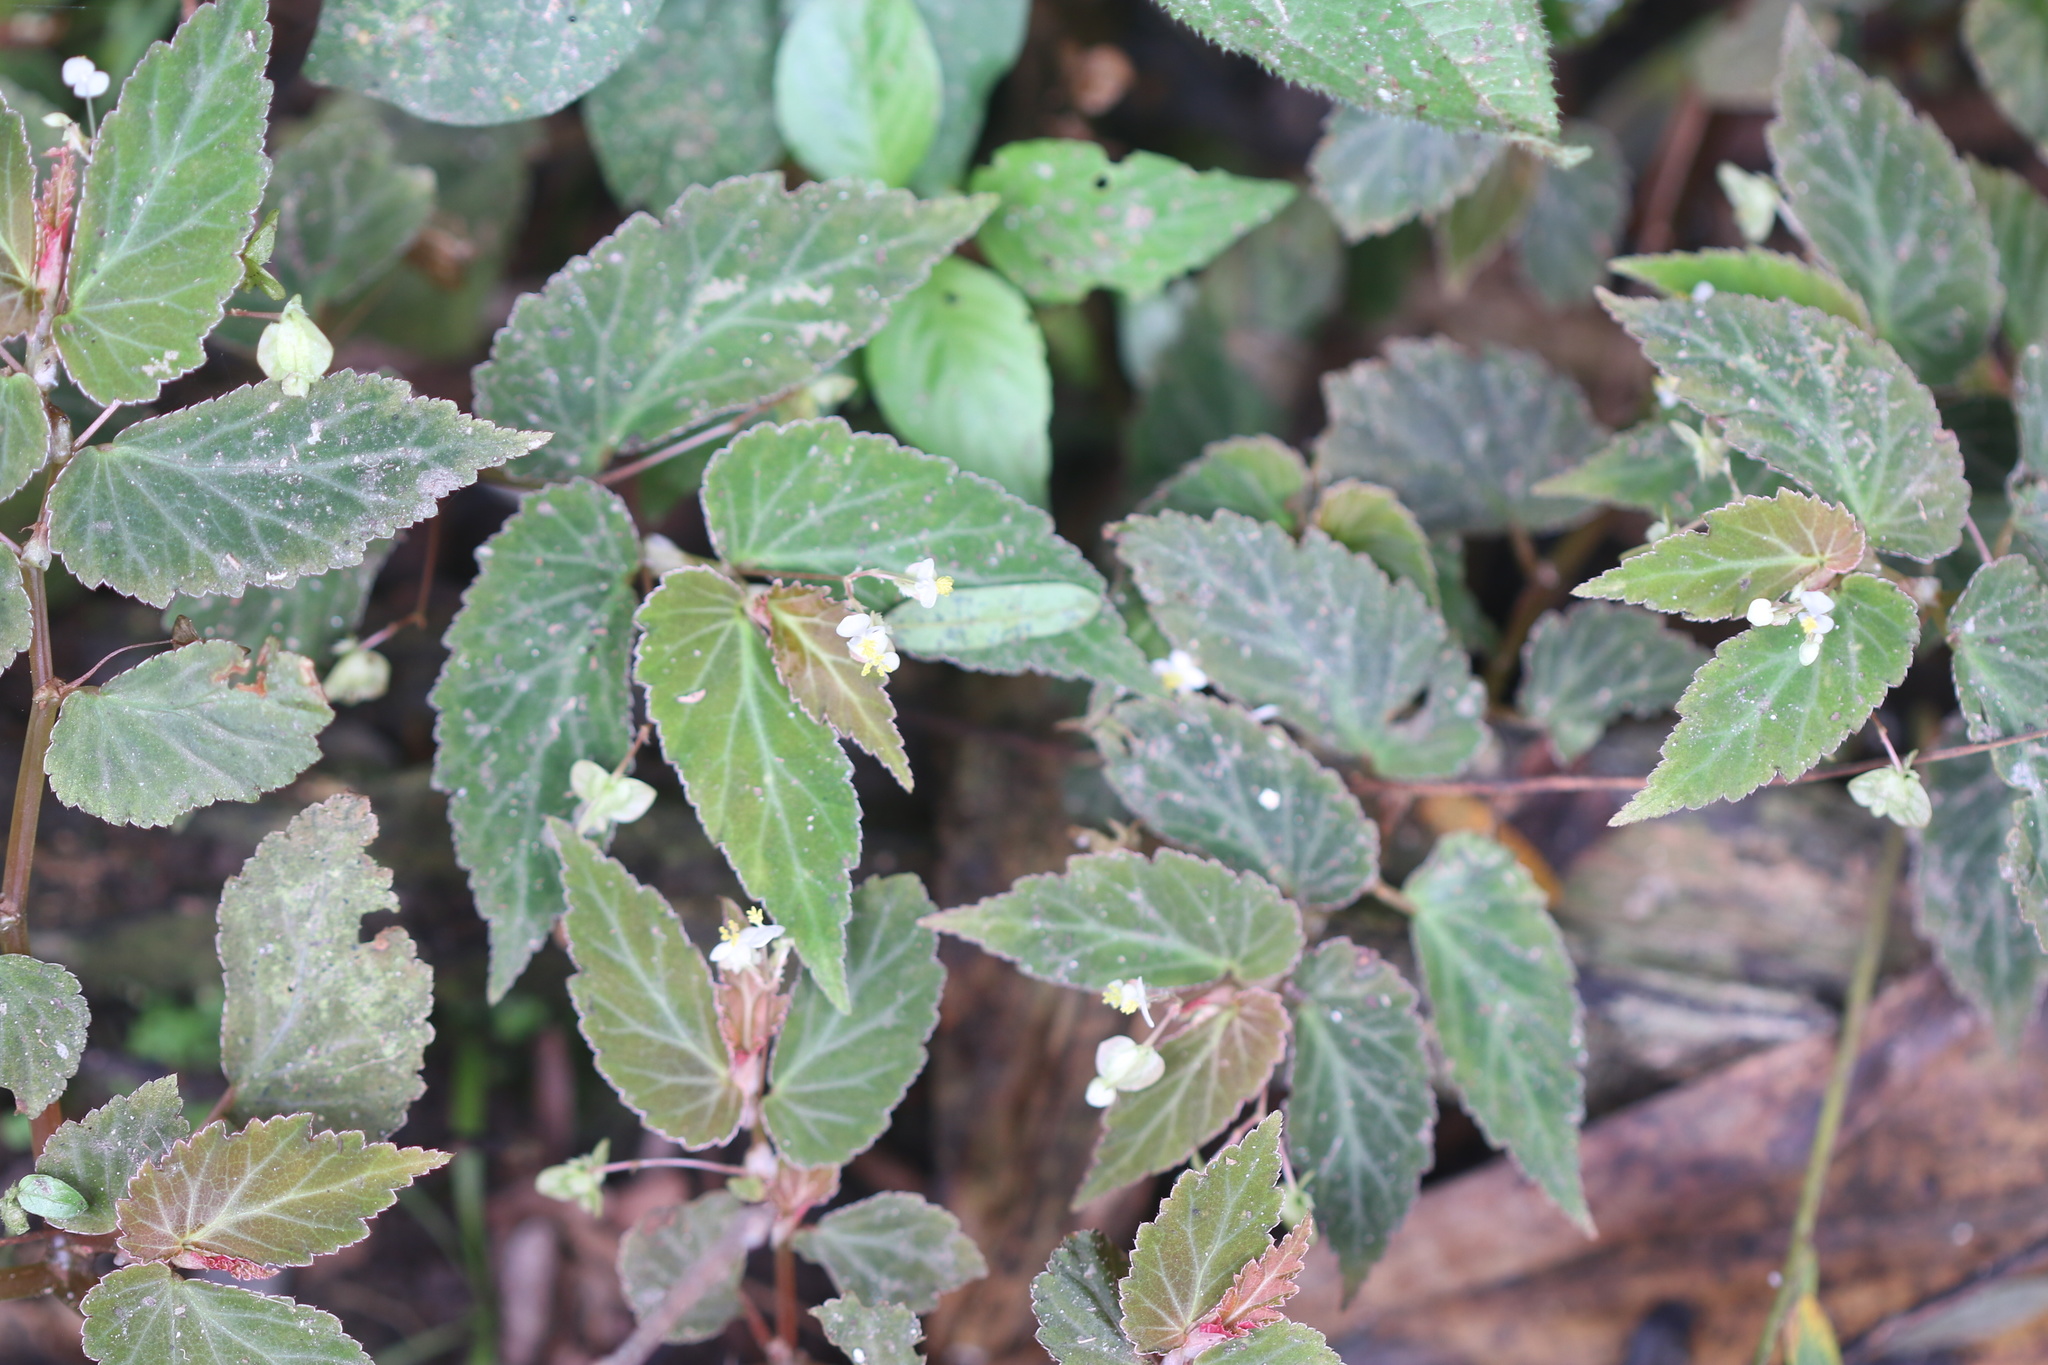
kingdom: Plantae
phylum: Tracheophyta
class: Magnoliopsida
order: Cucurbitales
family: Begoniaceae
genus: Begonia
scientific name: Begonia semiovata
